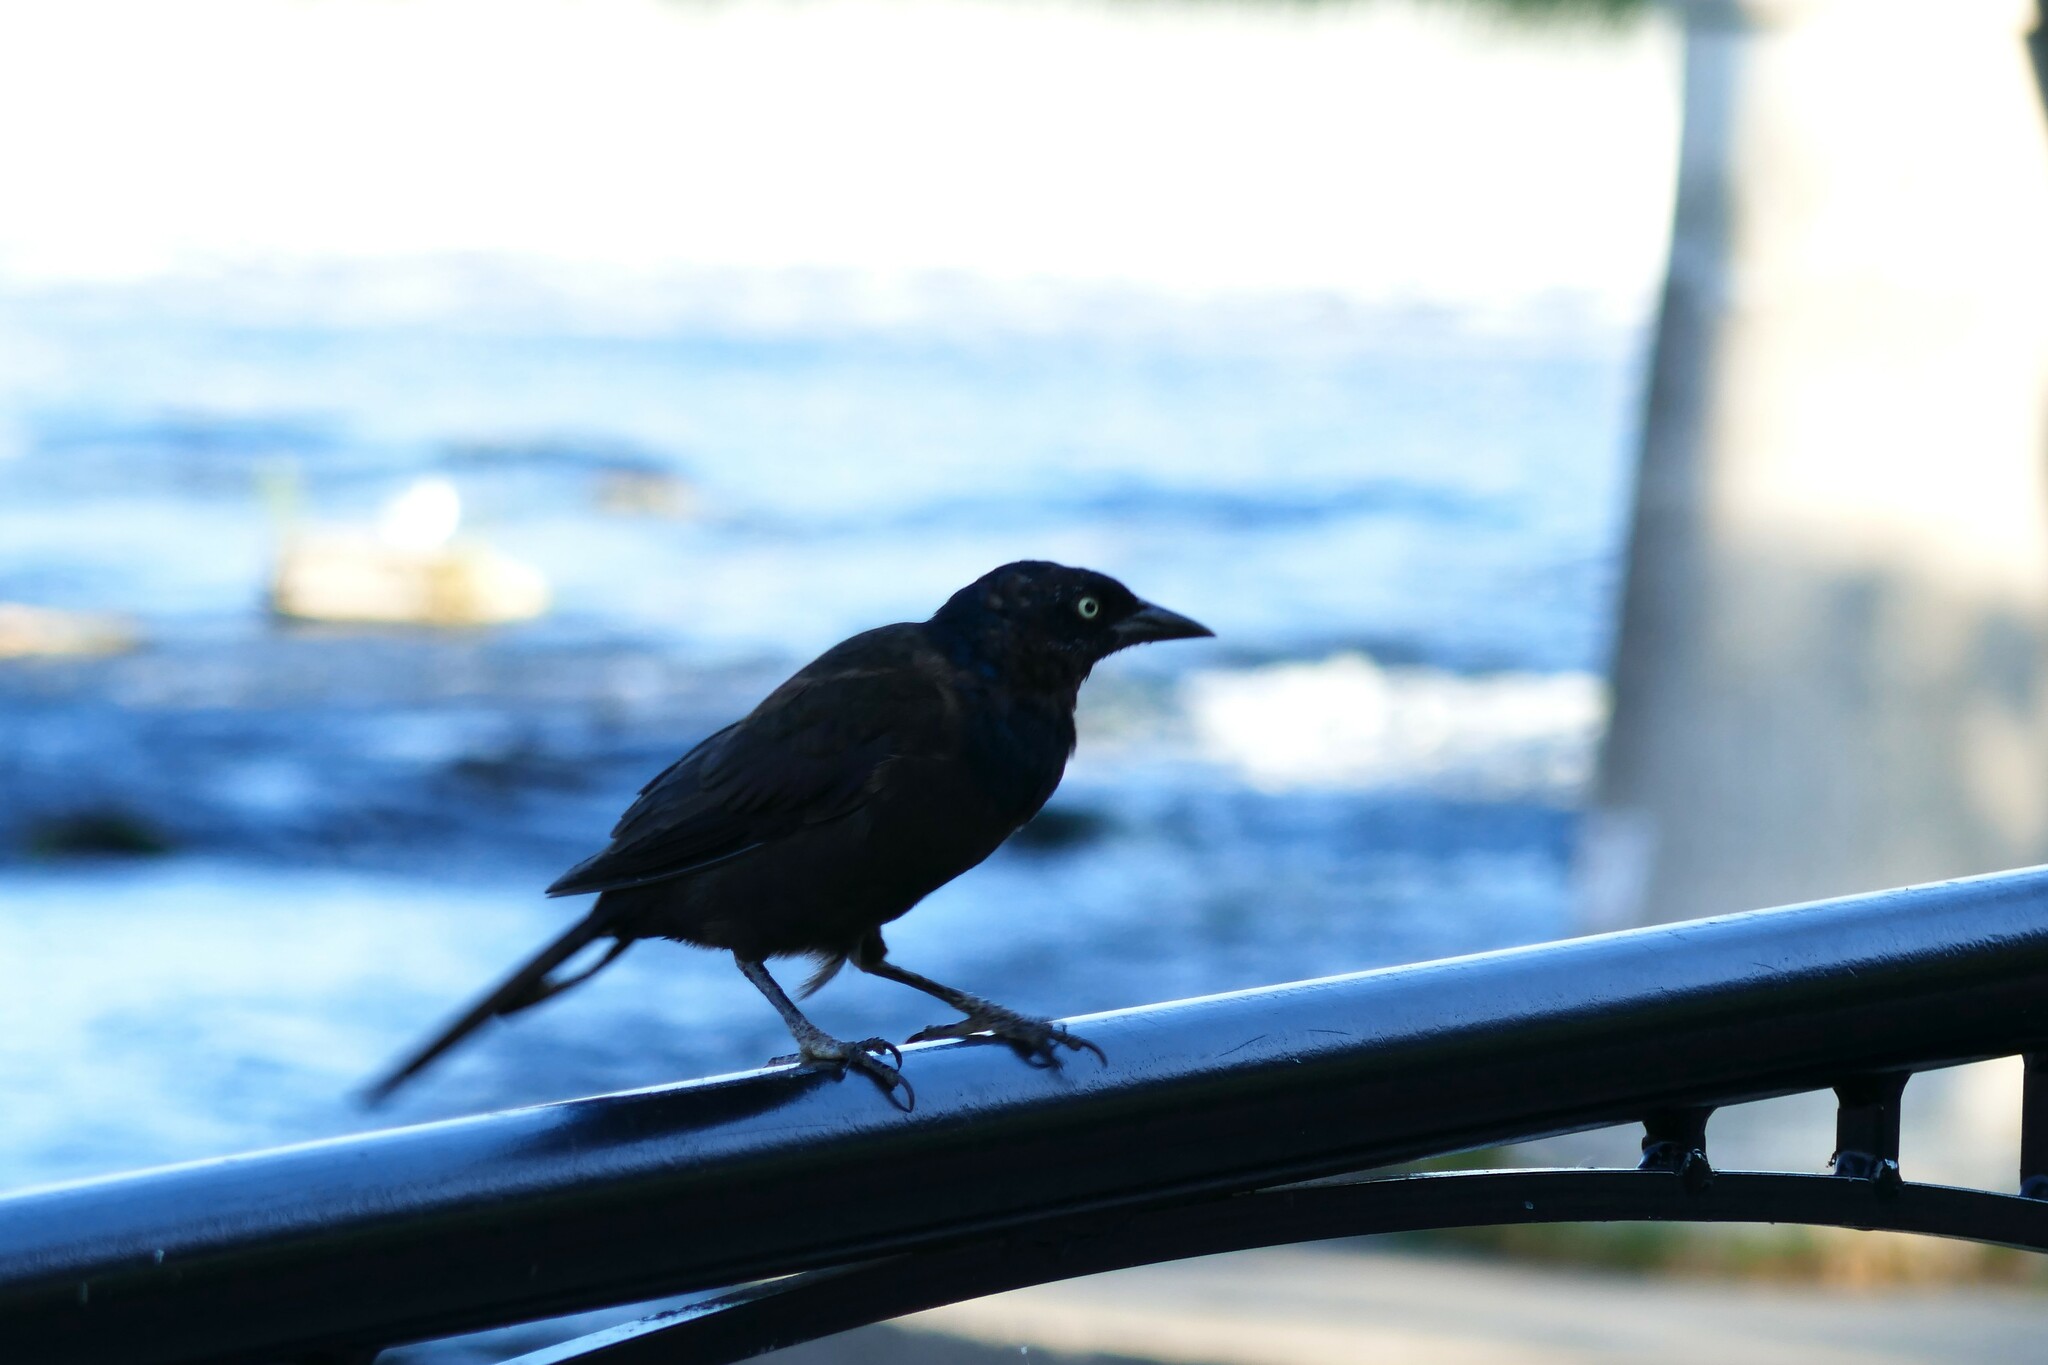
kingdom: Animalia
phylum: Chordata
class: Aves
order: Passeriformes
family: Icteridae
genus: Quiscalus
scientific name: Quiscalus quiscula
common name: Common grackle
